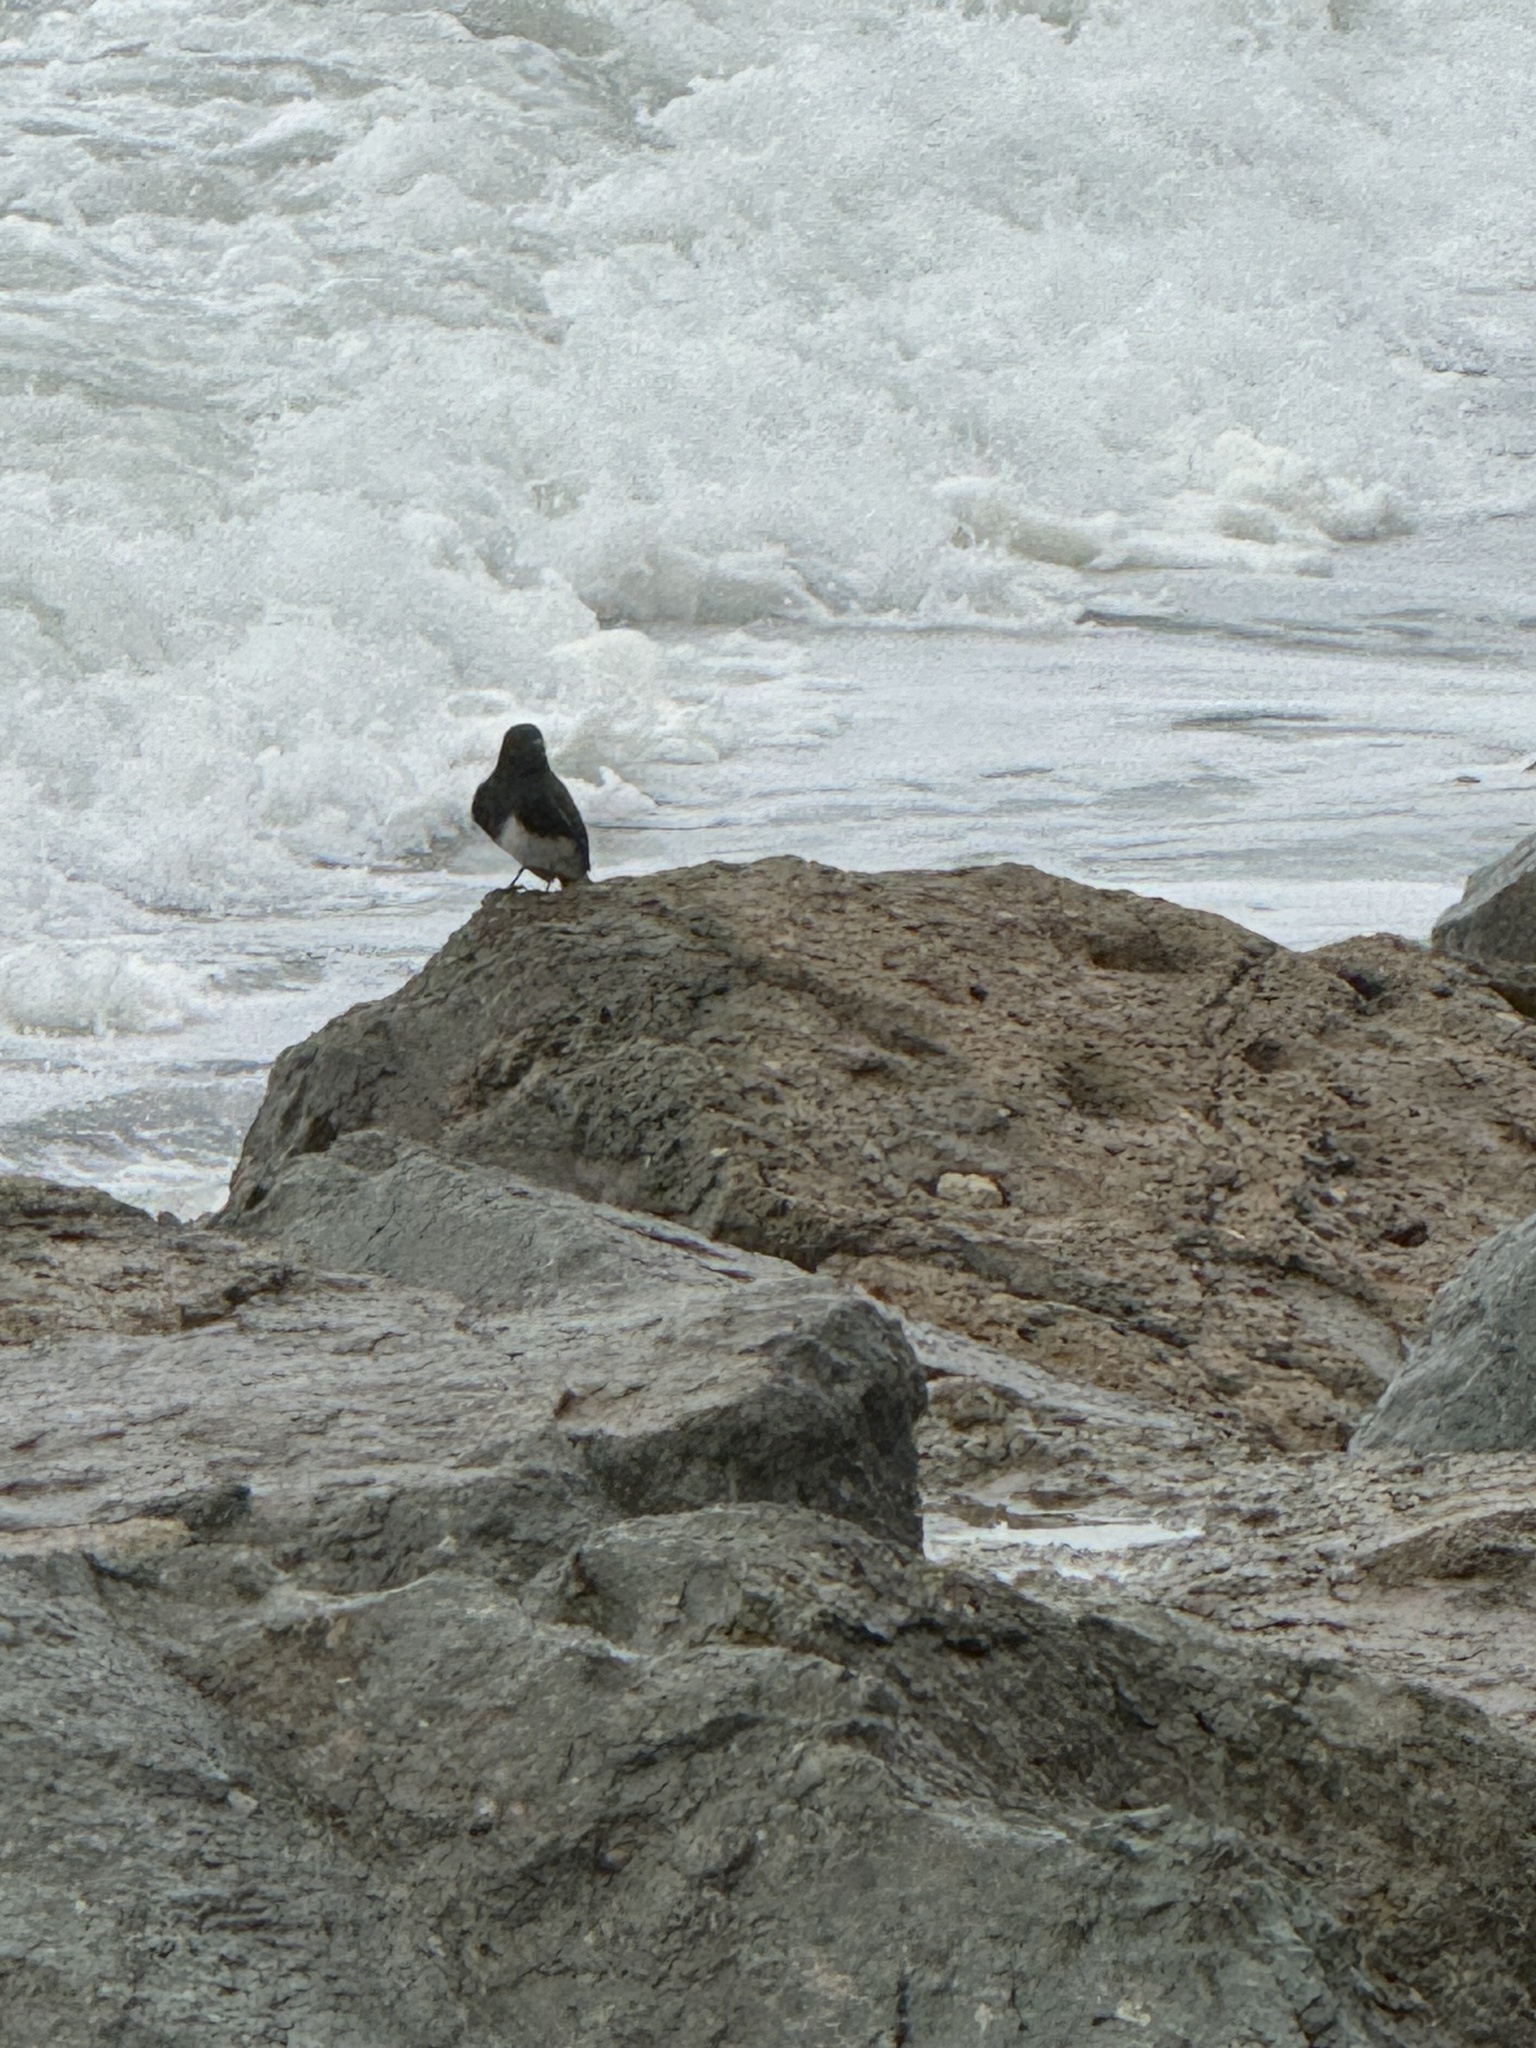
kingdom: Animalia
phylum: Chordata
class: Aves
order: Passeriformes
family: Tyrannidae
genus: Sayornis
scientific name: Sayornis nigricans
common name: Black phoebe
